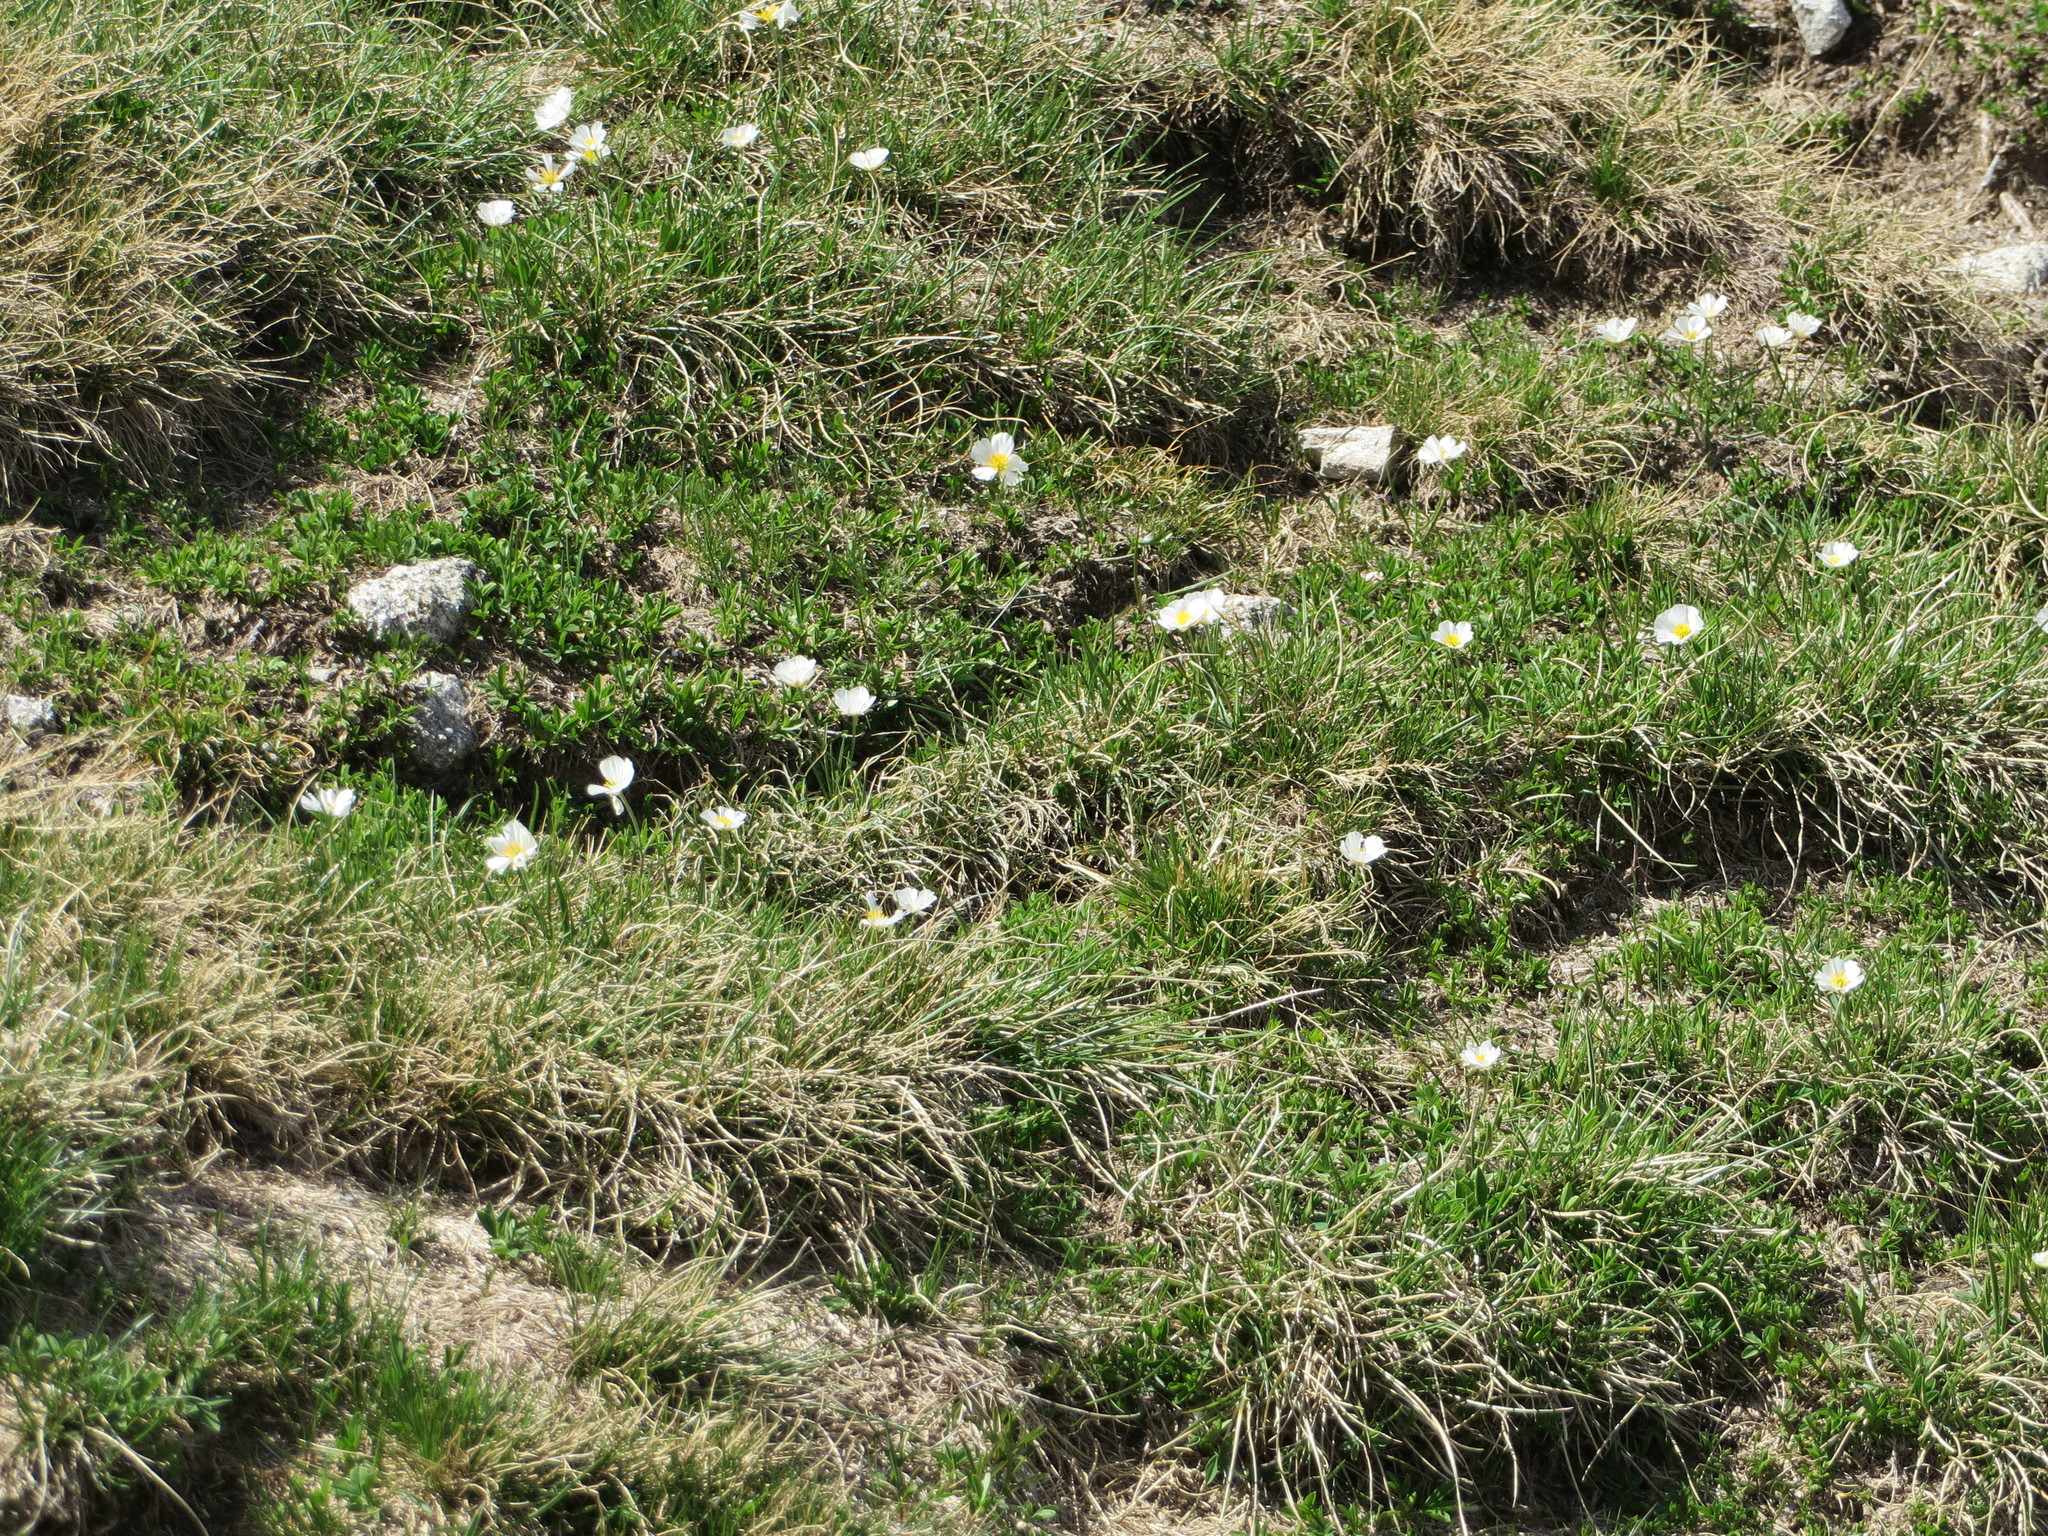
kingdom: Plantae
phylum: Tracheophyta
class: Magnoliopsida
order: Ranunculales
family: Ranunculaceae
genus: Ranunculus
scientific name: Ranunculus pyrenaeus
